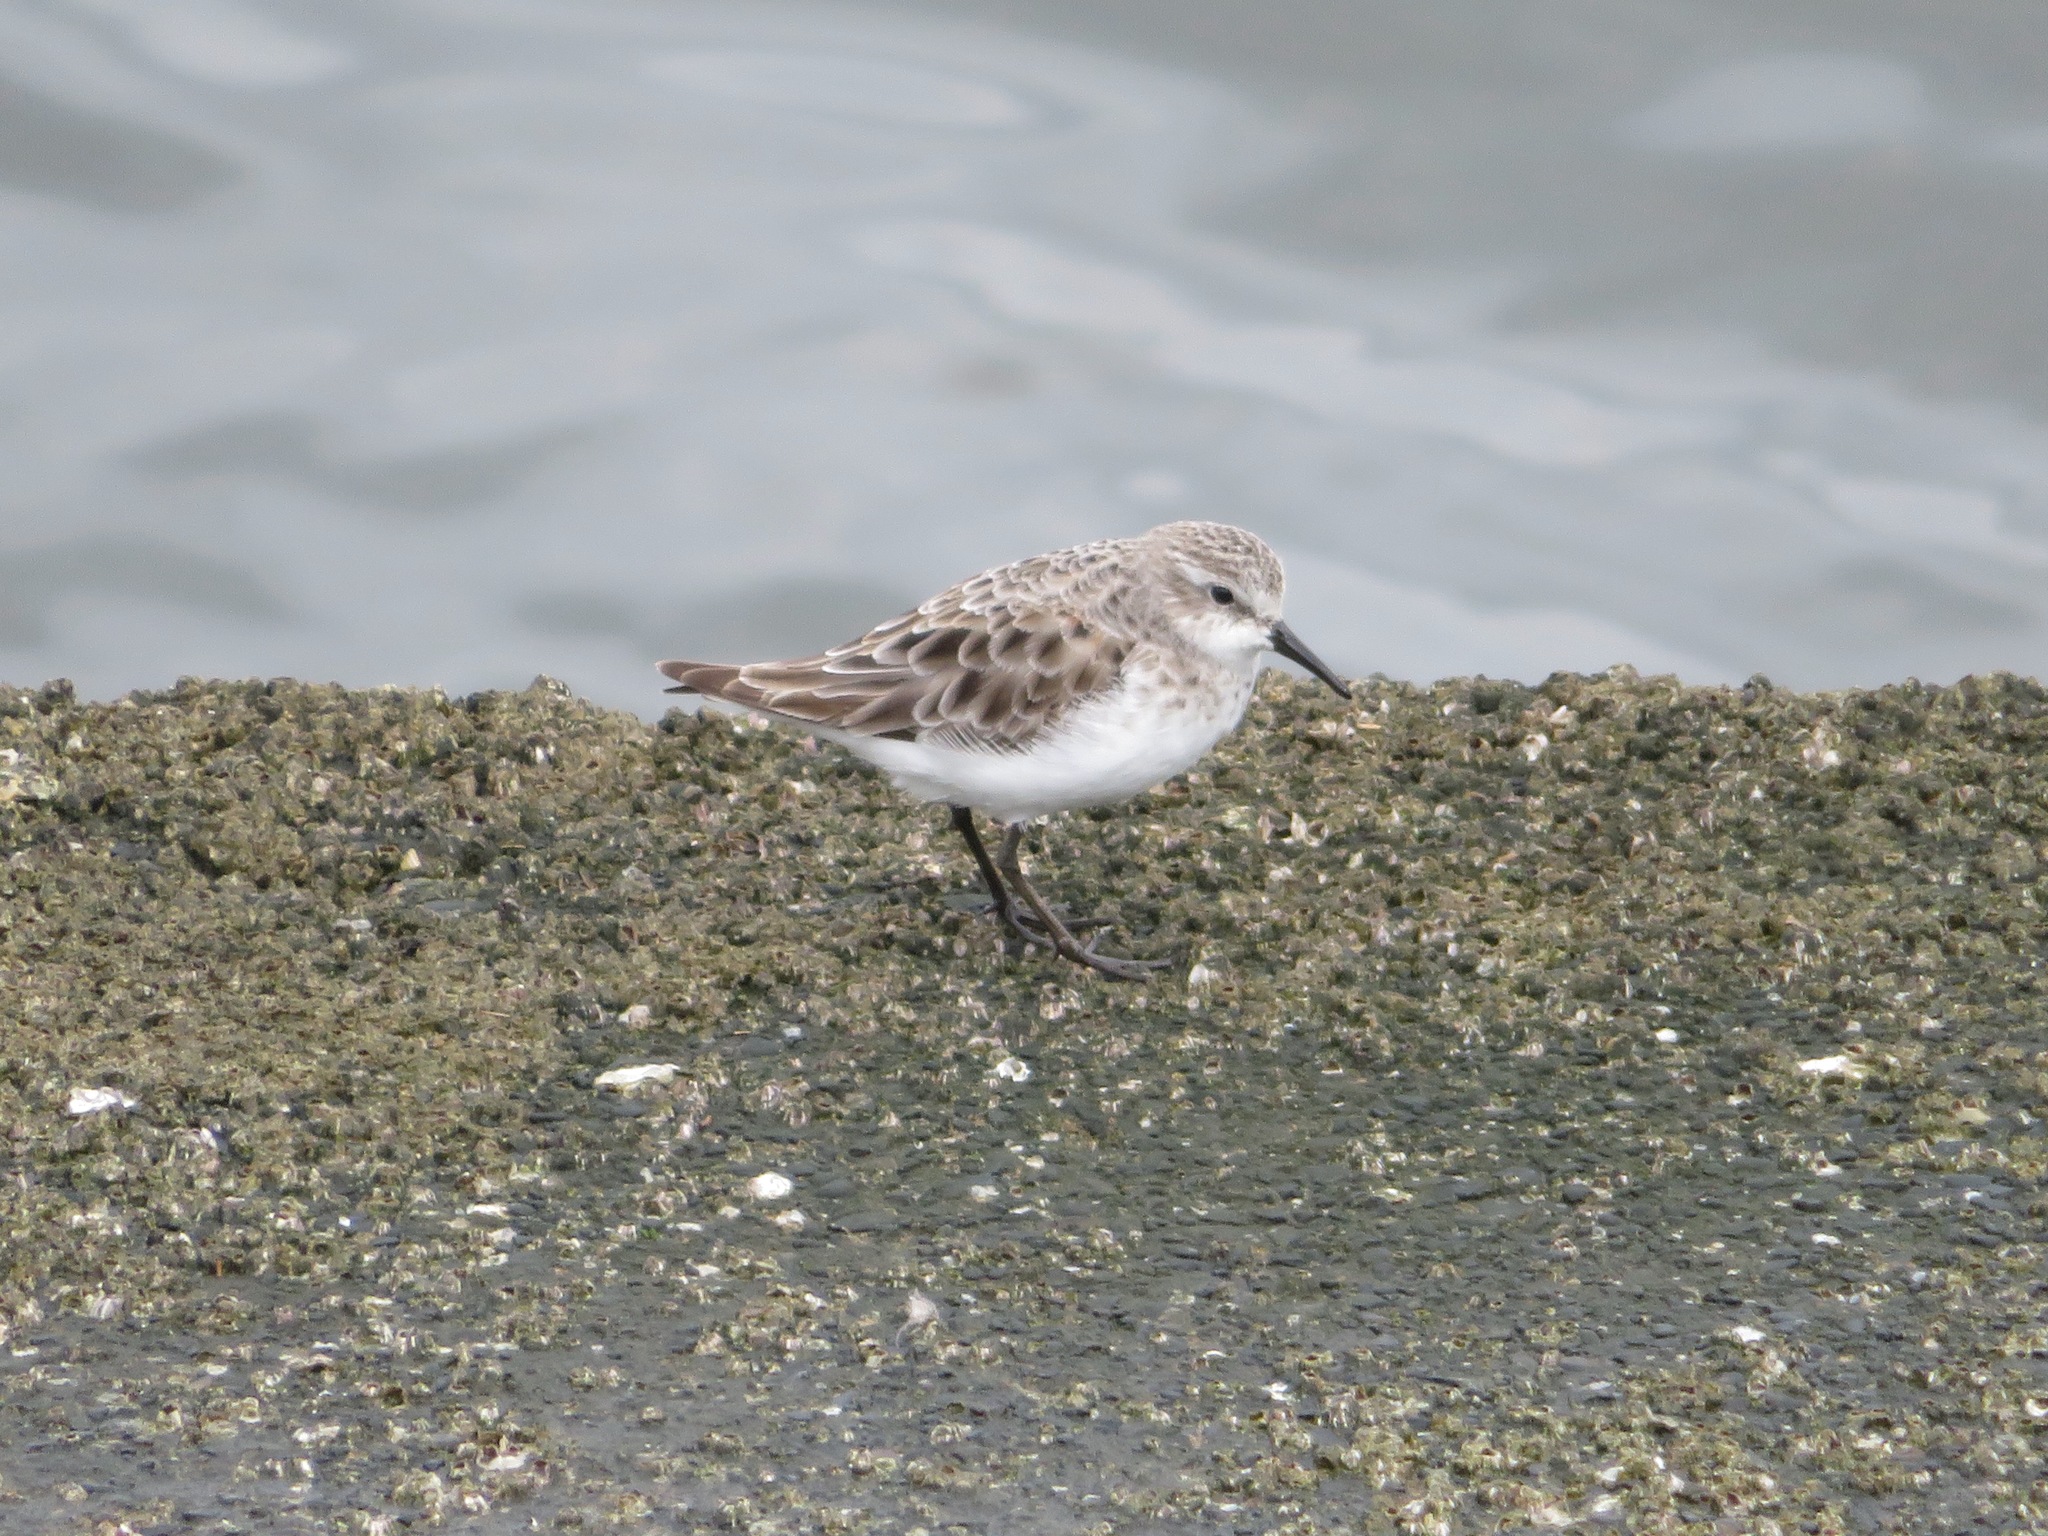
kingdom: Animalia
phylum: Chordata
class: Aves
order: Charadriiformes
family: Scolopacidae
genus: Calidris
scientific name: Calidris ruficollis
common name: Red-necked stint
